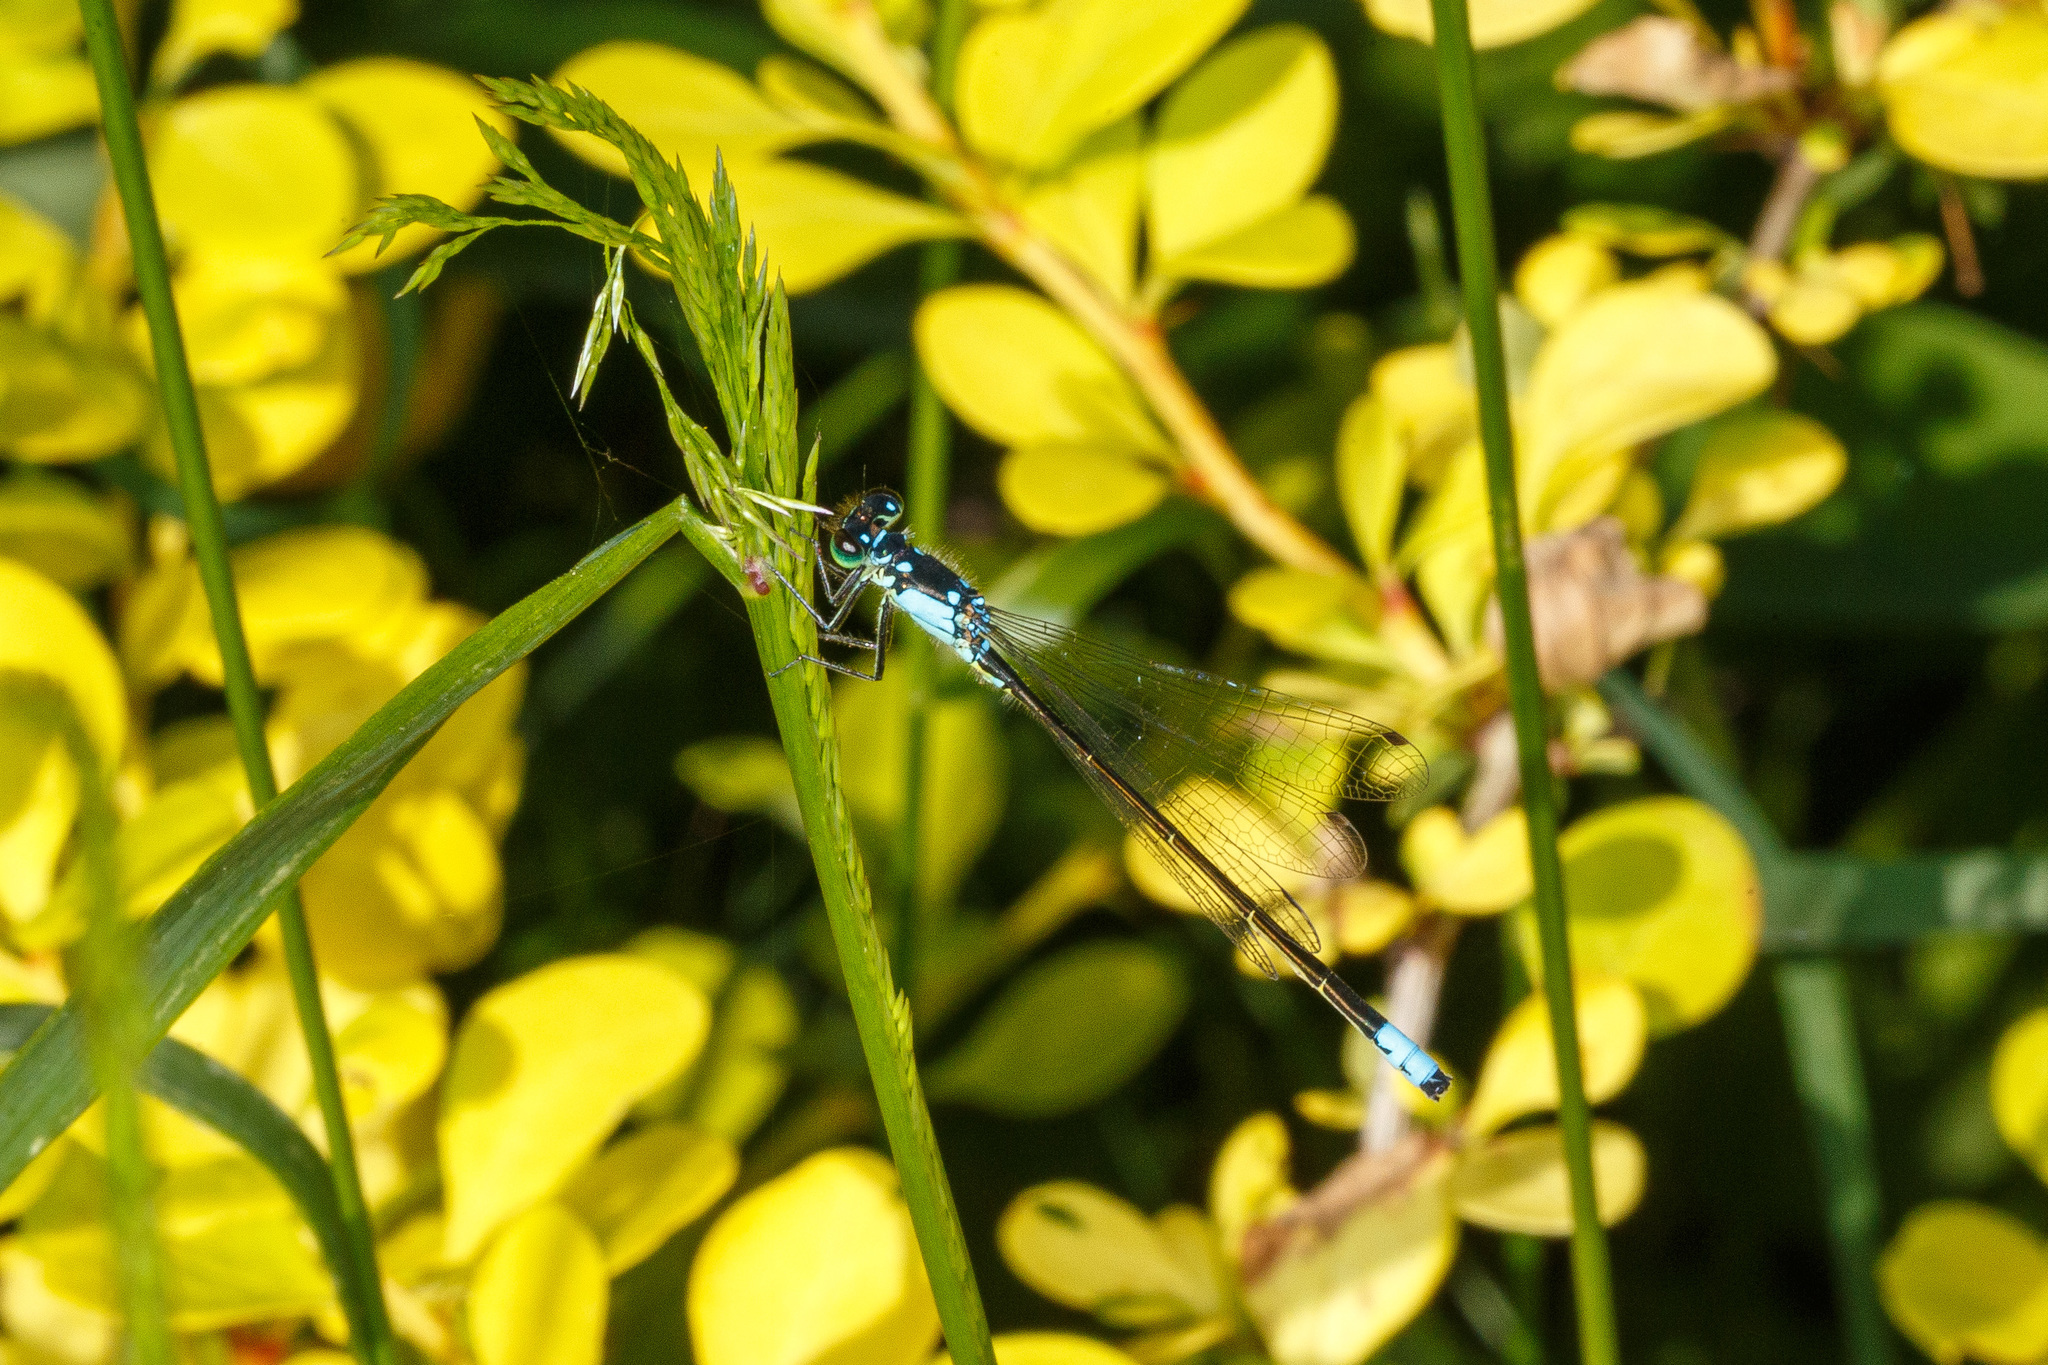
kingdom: Animalia
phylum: Arthropoda
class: Insecta
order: Odonata
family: Coenagrionidae
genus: Ischnura
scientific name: Ischnura cervula
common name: Pacific forktail
